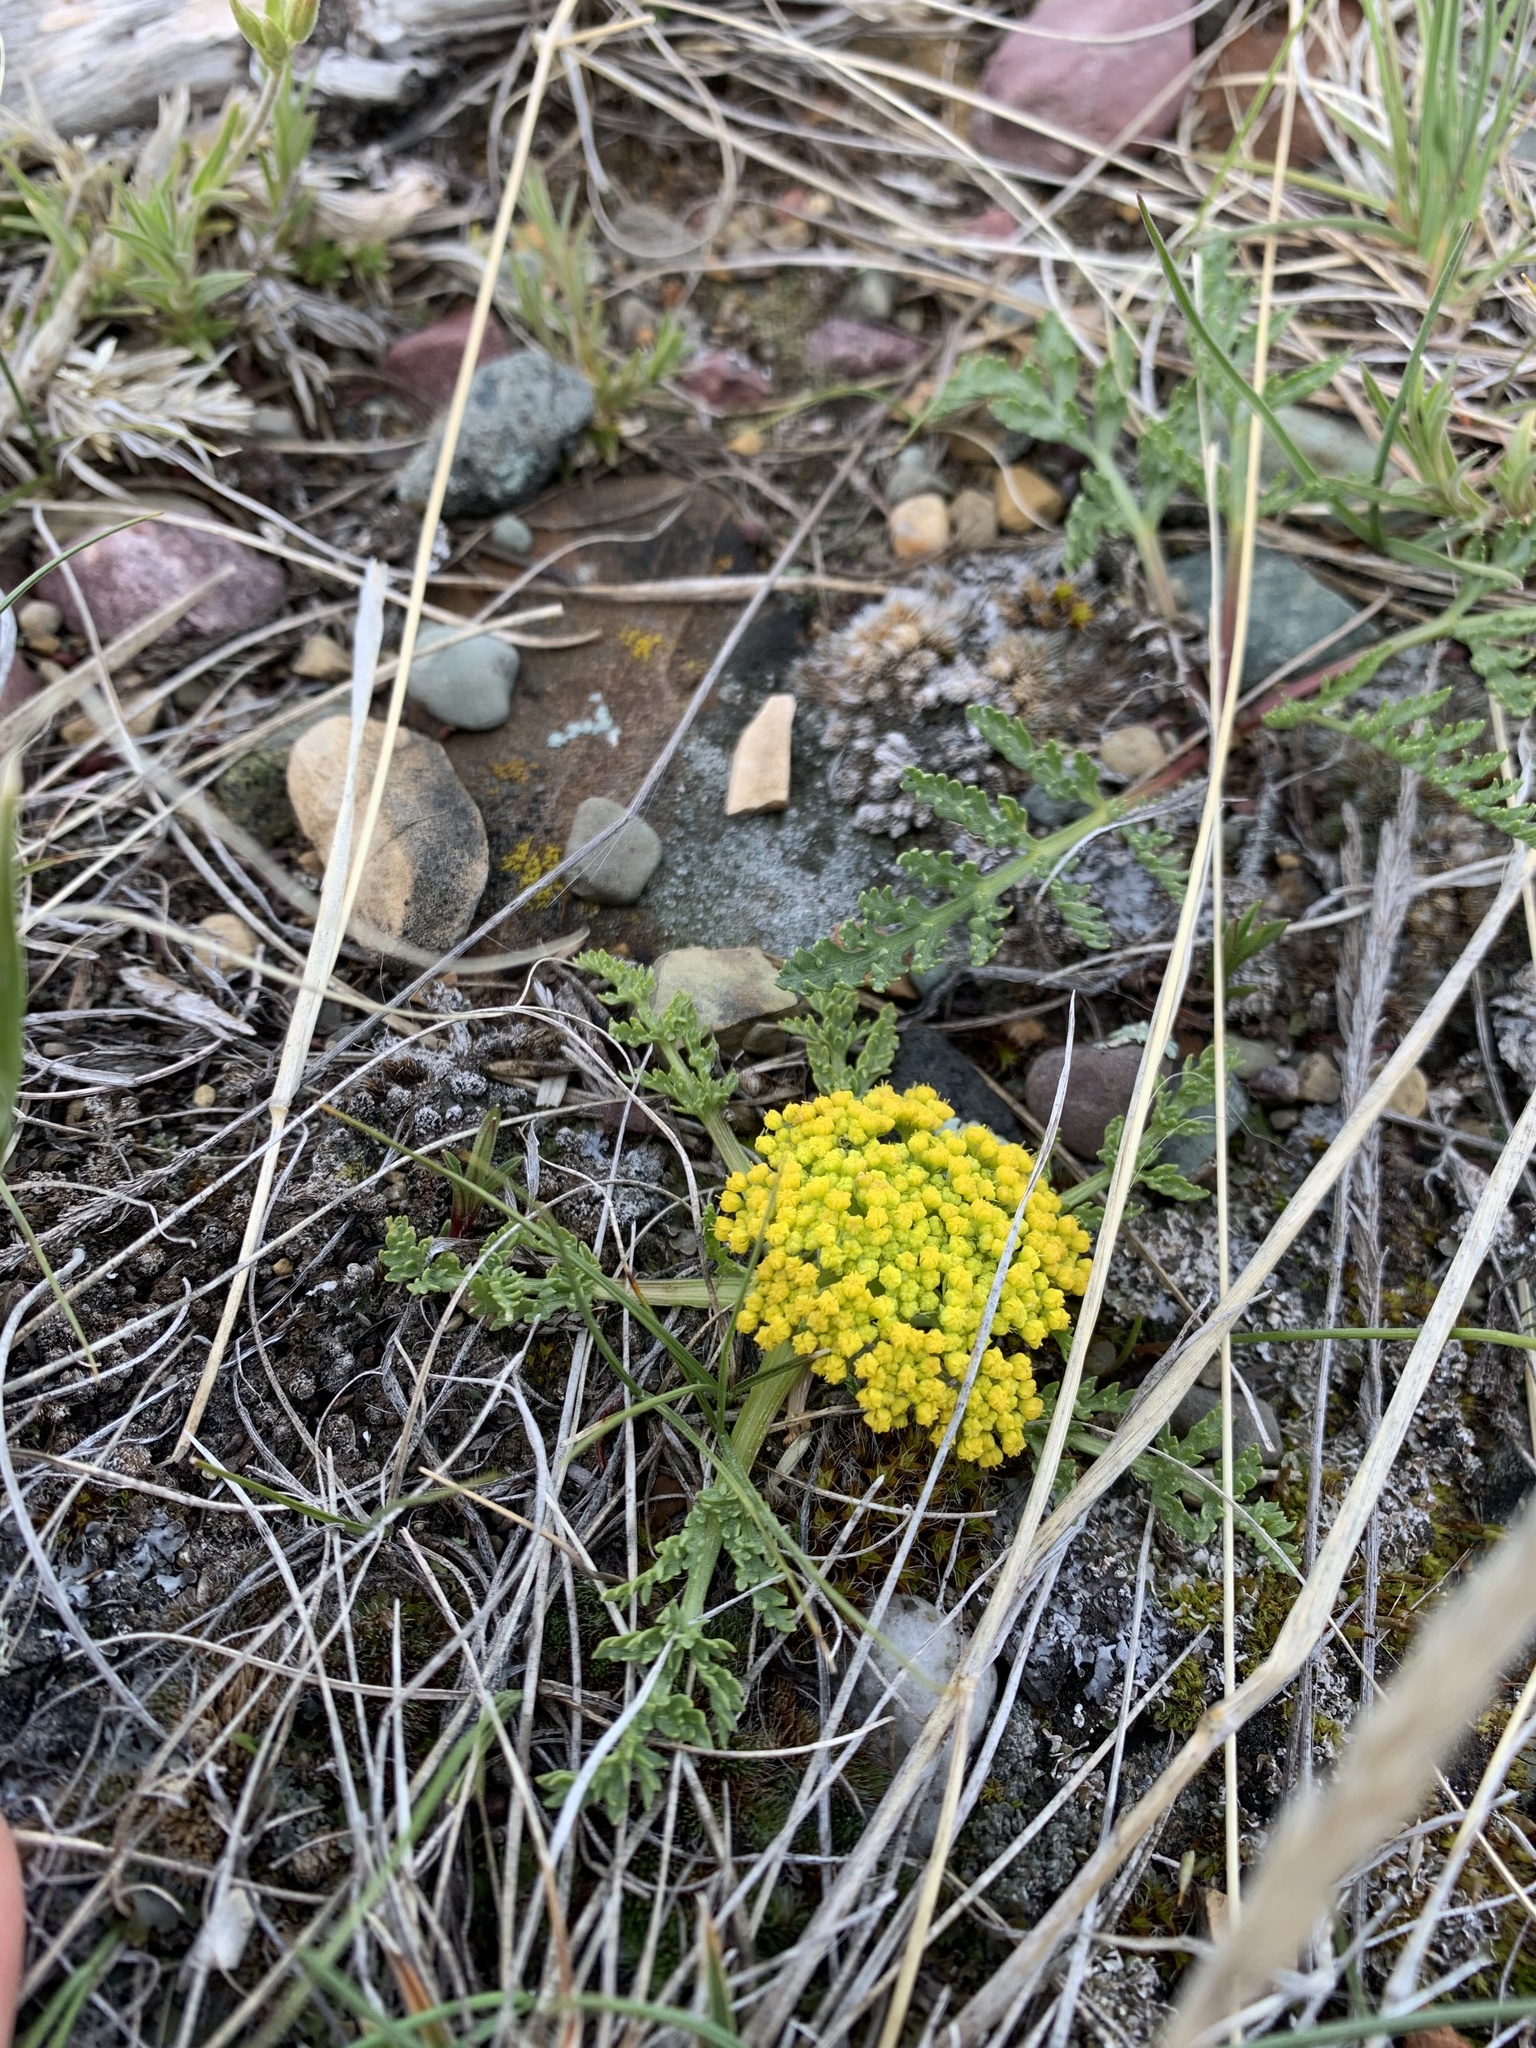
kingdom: Plantae
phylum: Tracheophyta
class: Magnoliopsida
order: Apiales
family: Apiaceae
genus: Musineon
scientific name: Musineon divaricatum
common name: Plains musineon
